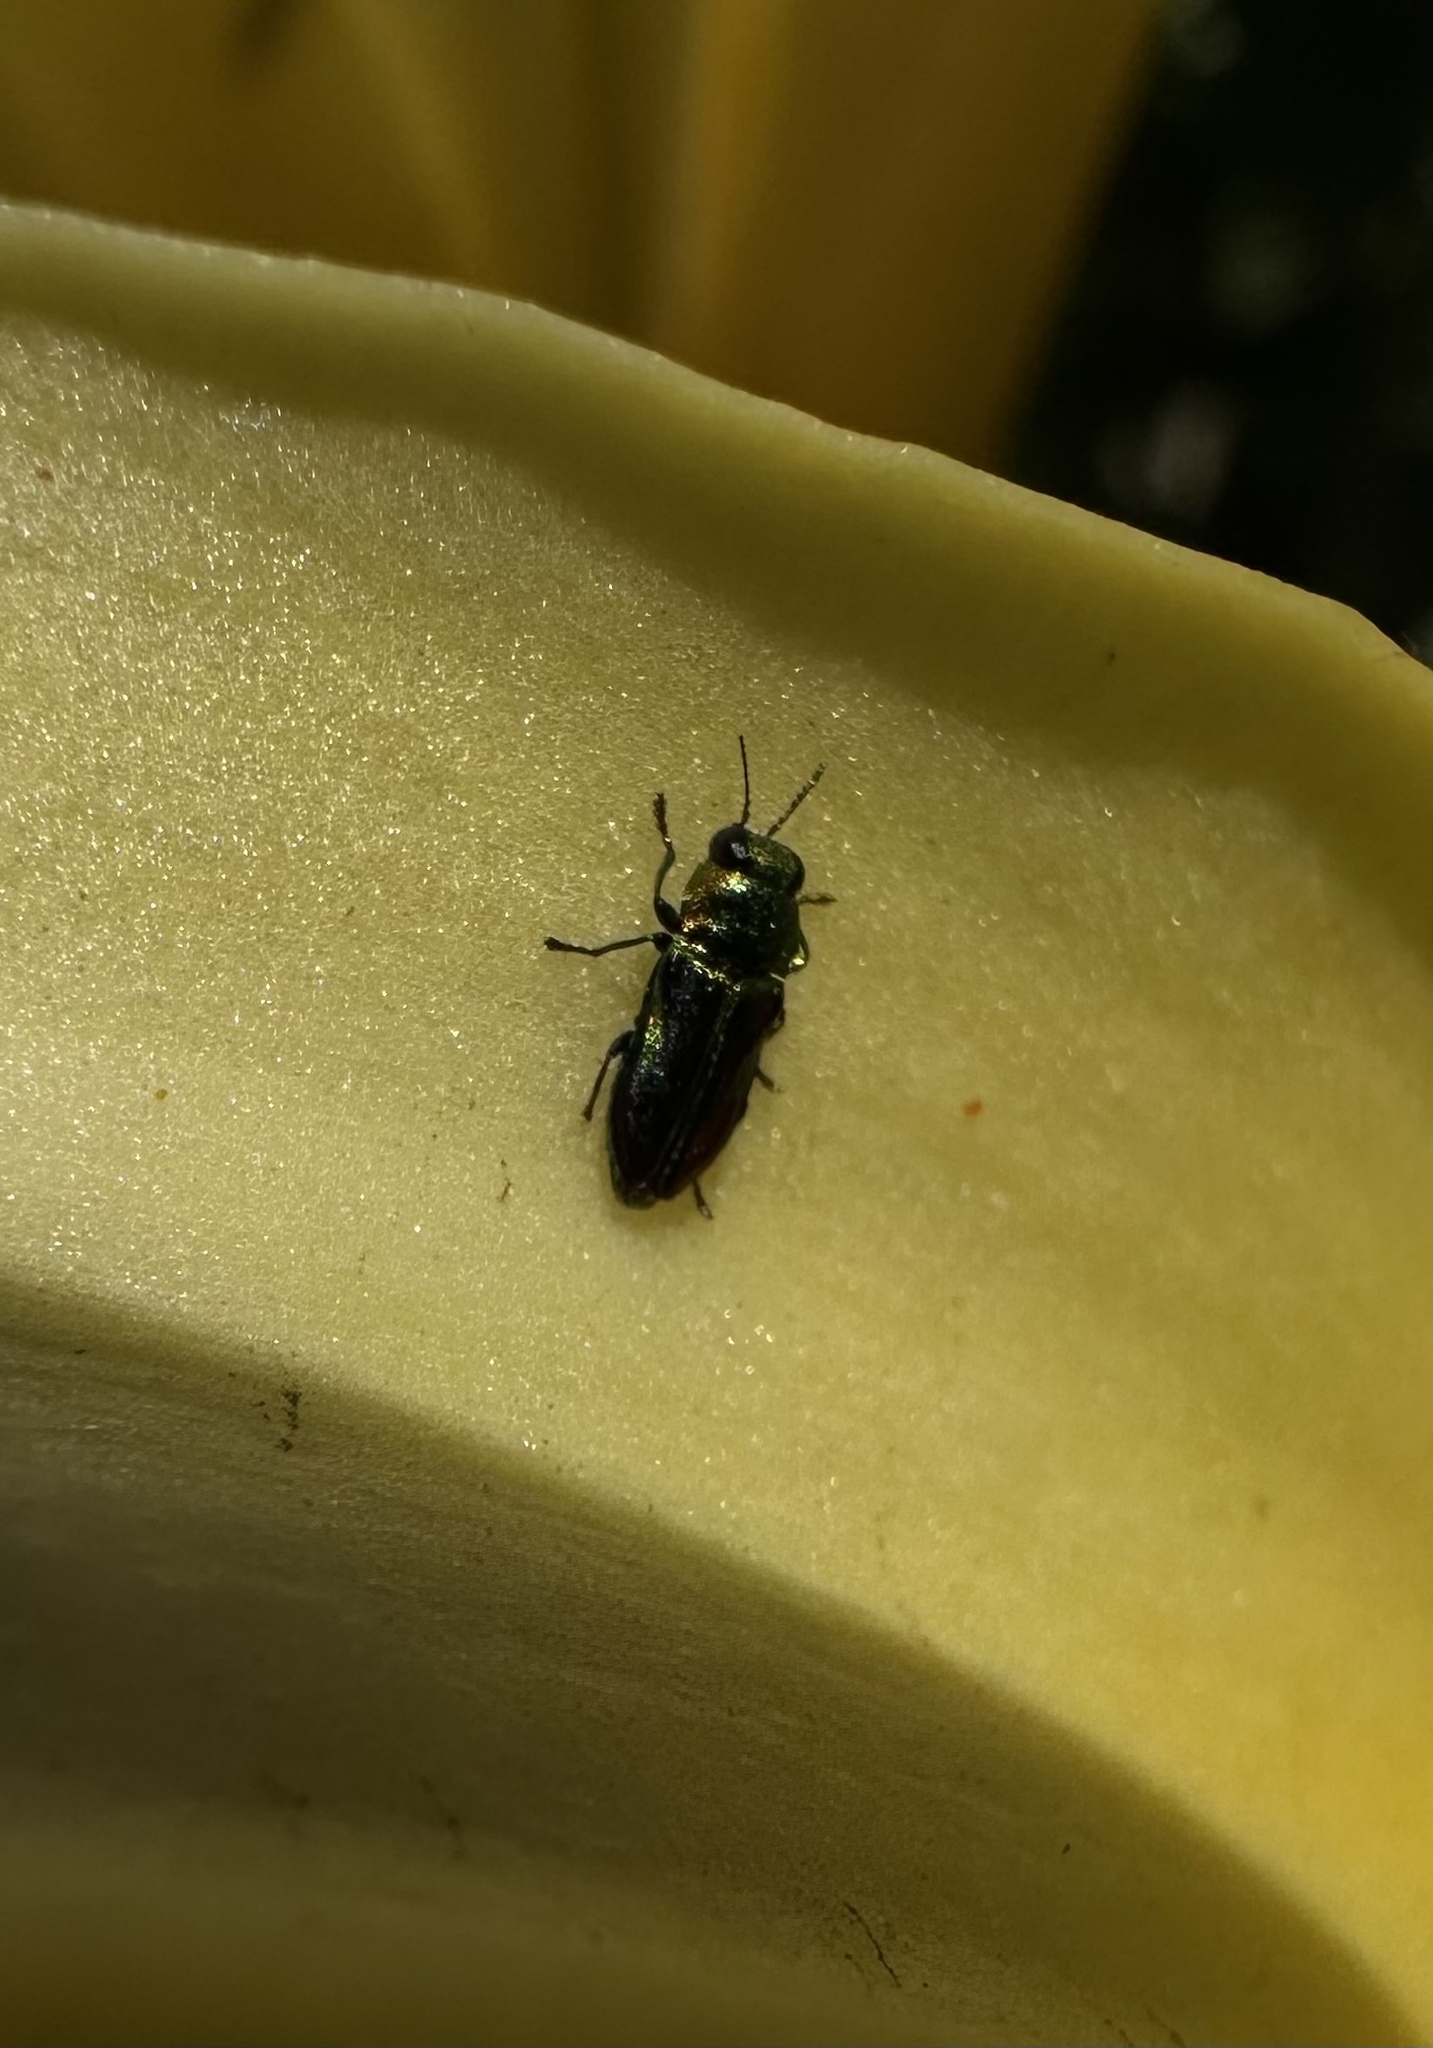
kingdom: Animalia
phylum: Arthropoda
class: Insecta
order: Coleoptera
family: Buprestidae
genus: Bilyaxia
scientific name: Bilyaxia concinna
